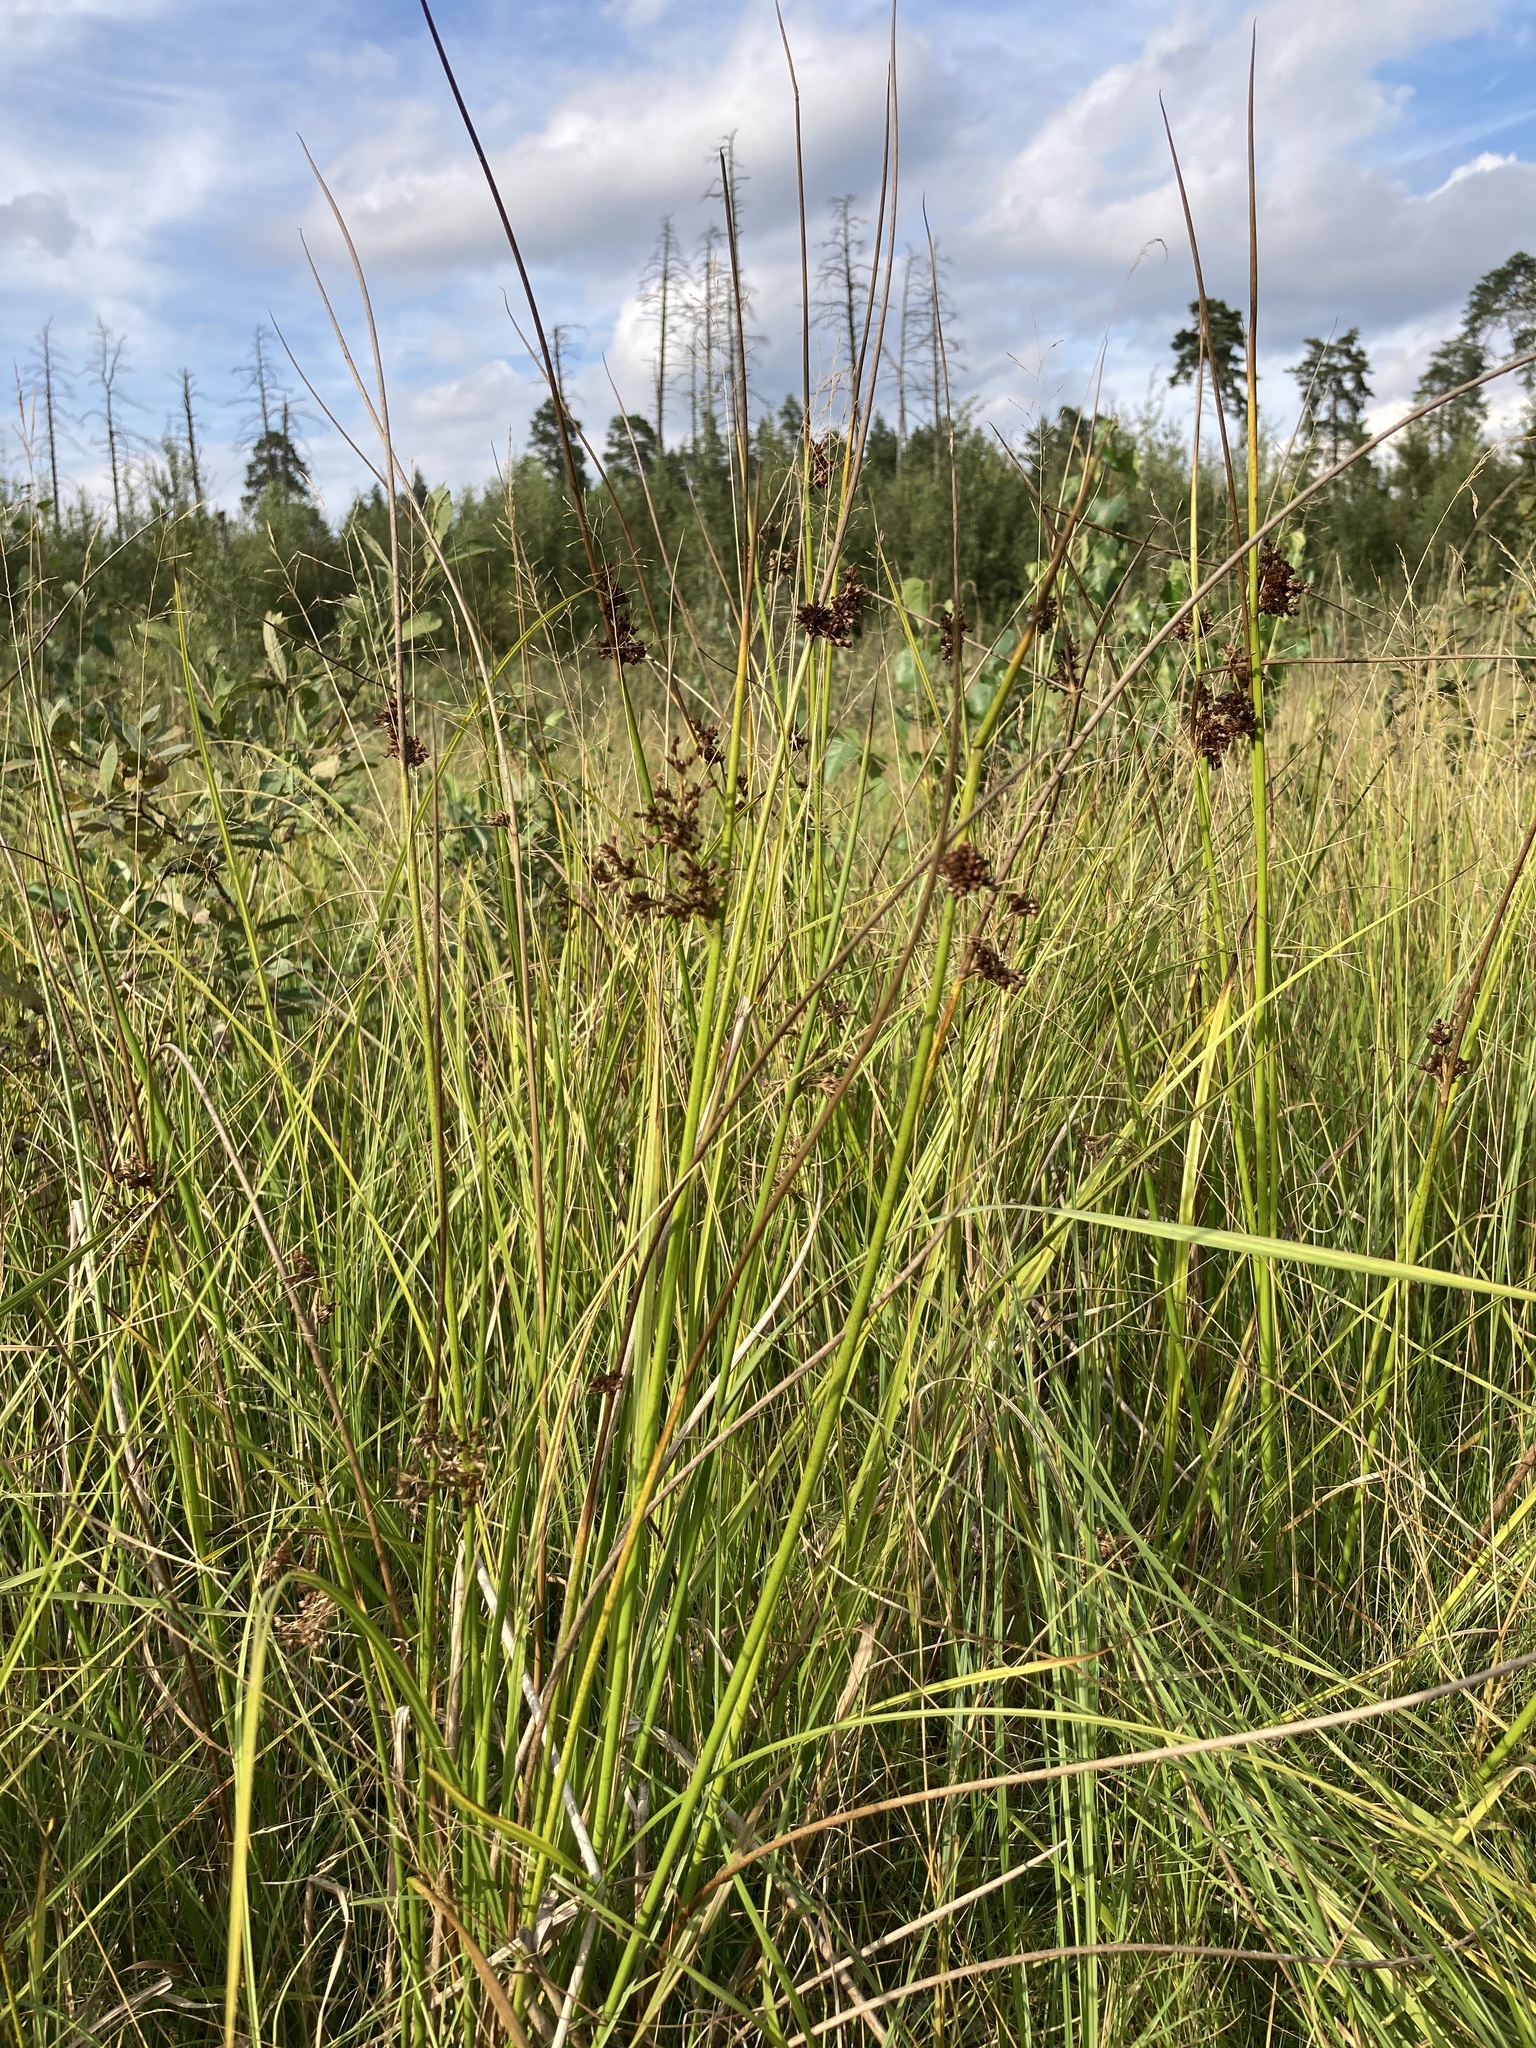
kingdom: Plantae
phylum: Tracheophyta
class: Liliopsida
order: Poales
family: Juncaceae
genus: Juncus
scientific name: Juncus effusus
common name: Soft rush
